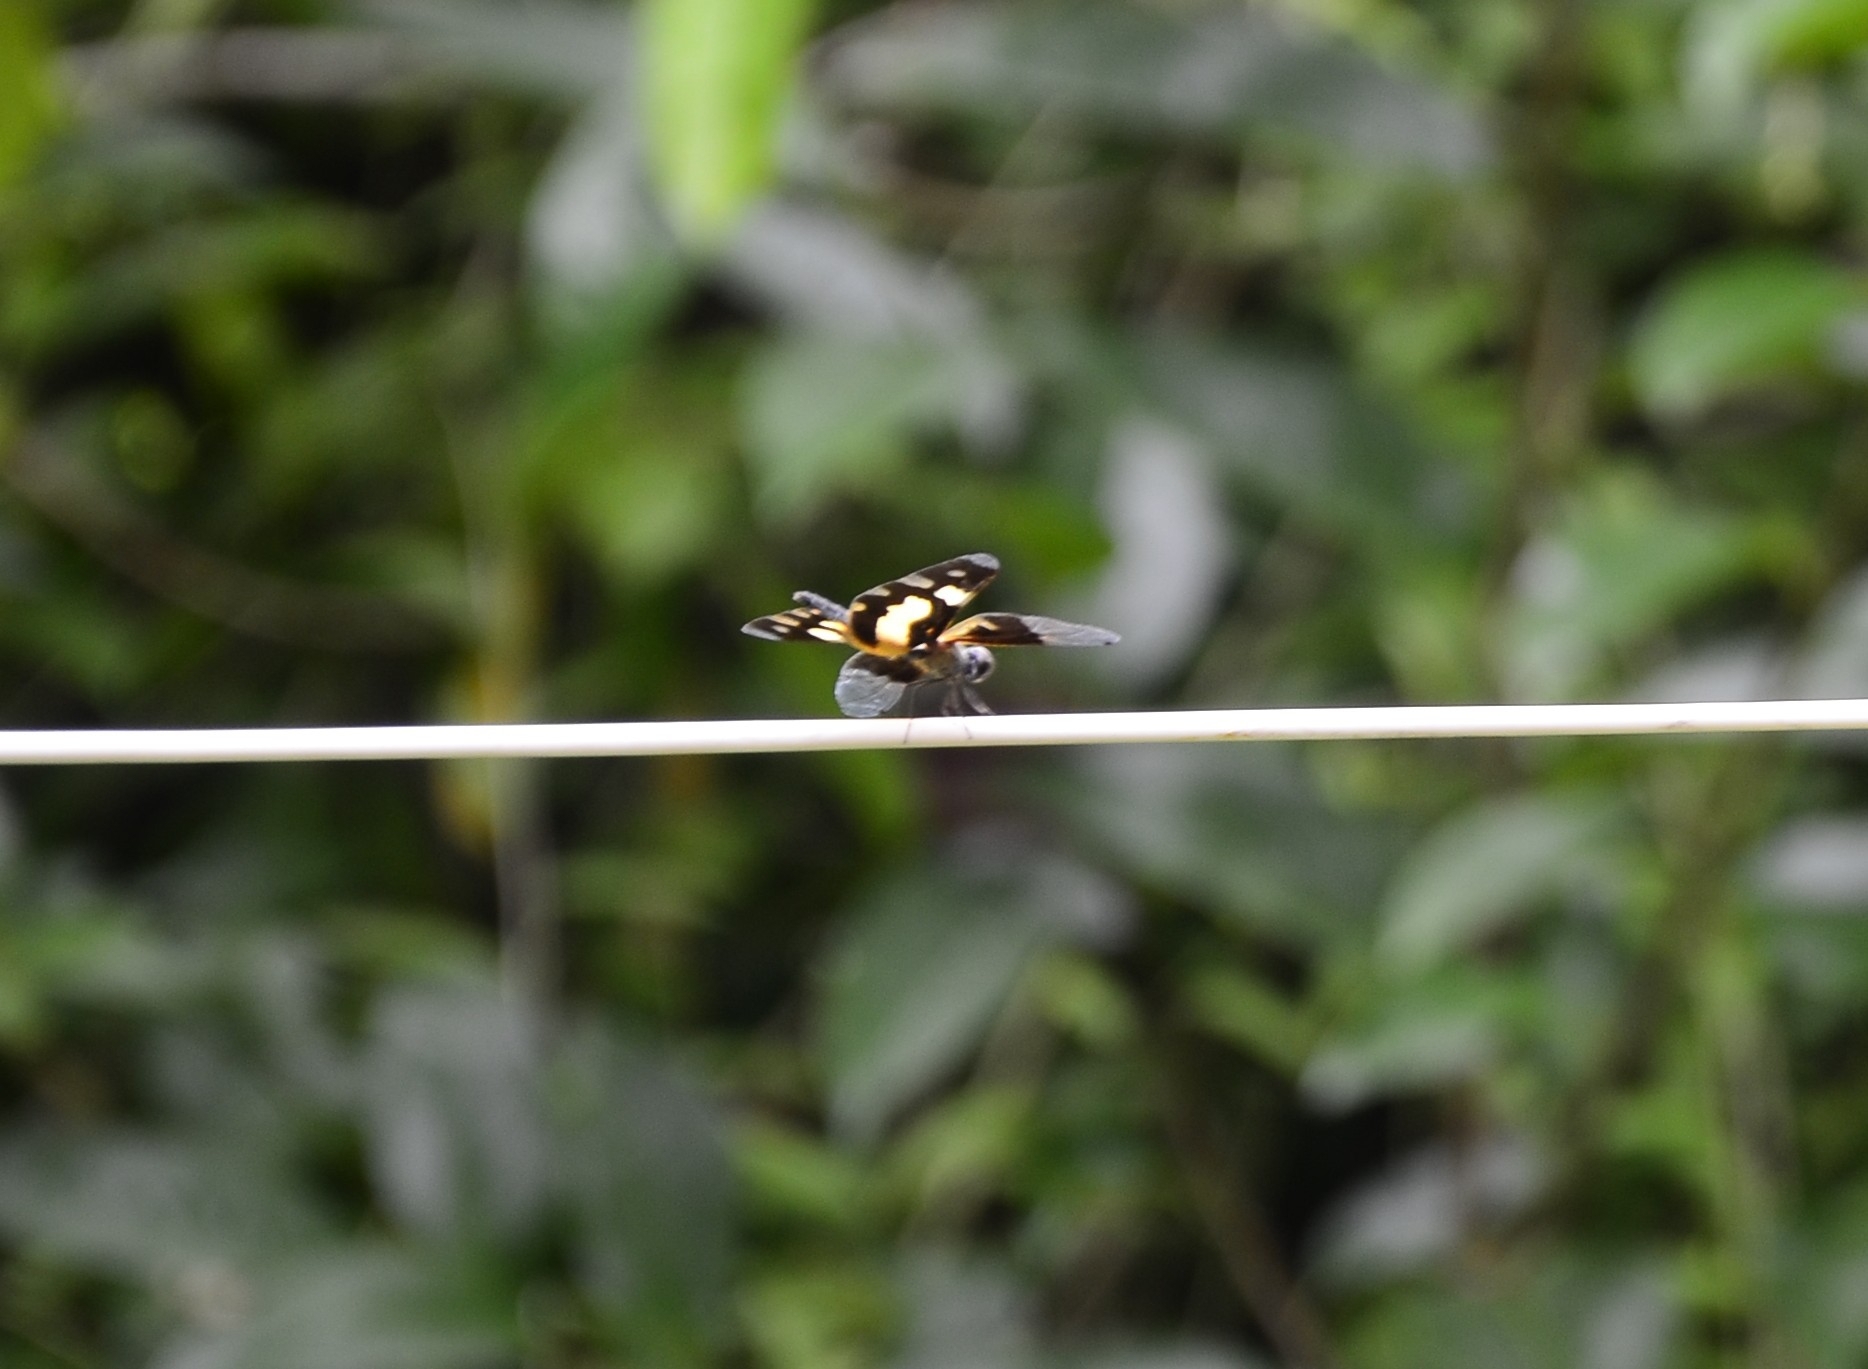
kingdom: Animalia
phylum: Arthropoda
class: Insecta
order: Odonata
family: Libellulidae
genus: Rhyothemis
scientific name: Rhyothemis variegata
